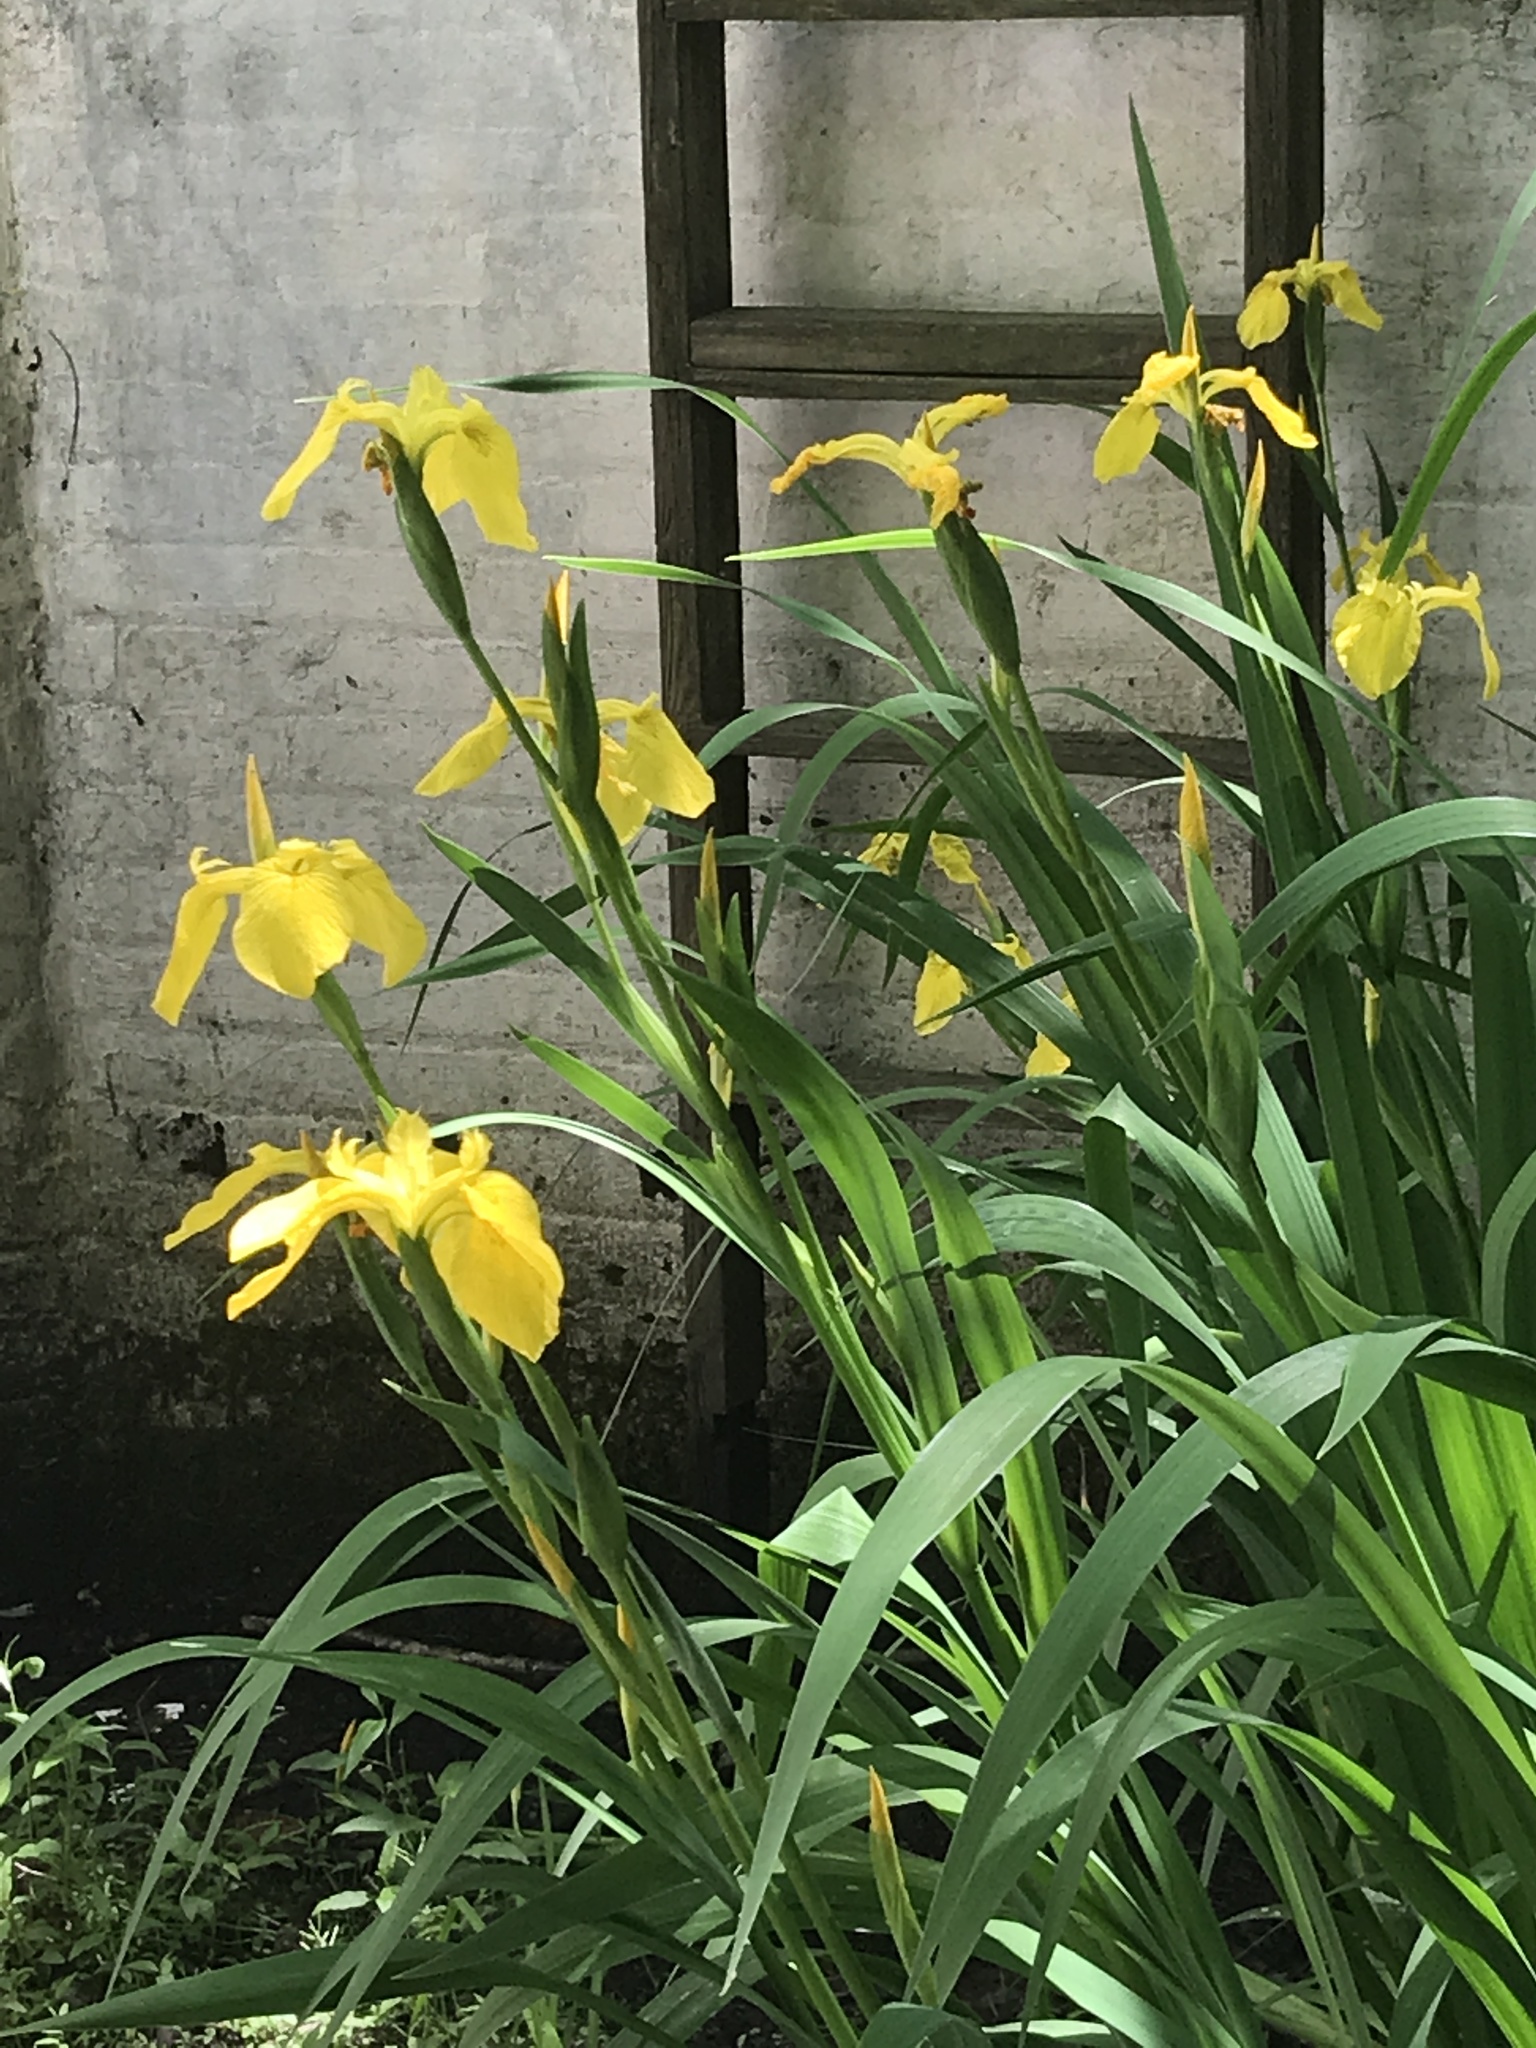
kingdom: Plantae
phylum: Tracheophyta
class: Liliopsida
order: Asparagales
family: Iridaceae
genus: Iris
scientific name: Iris pseudacorus
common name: Yellow flag
